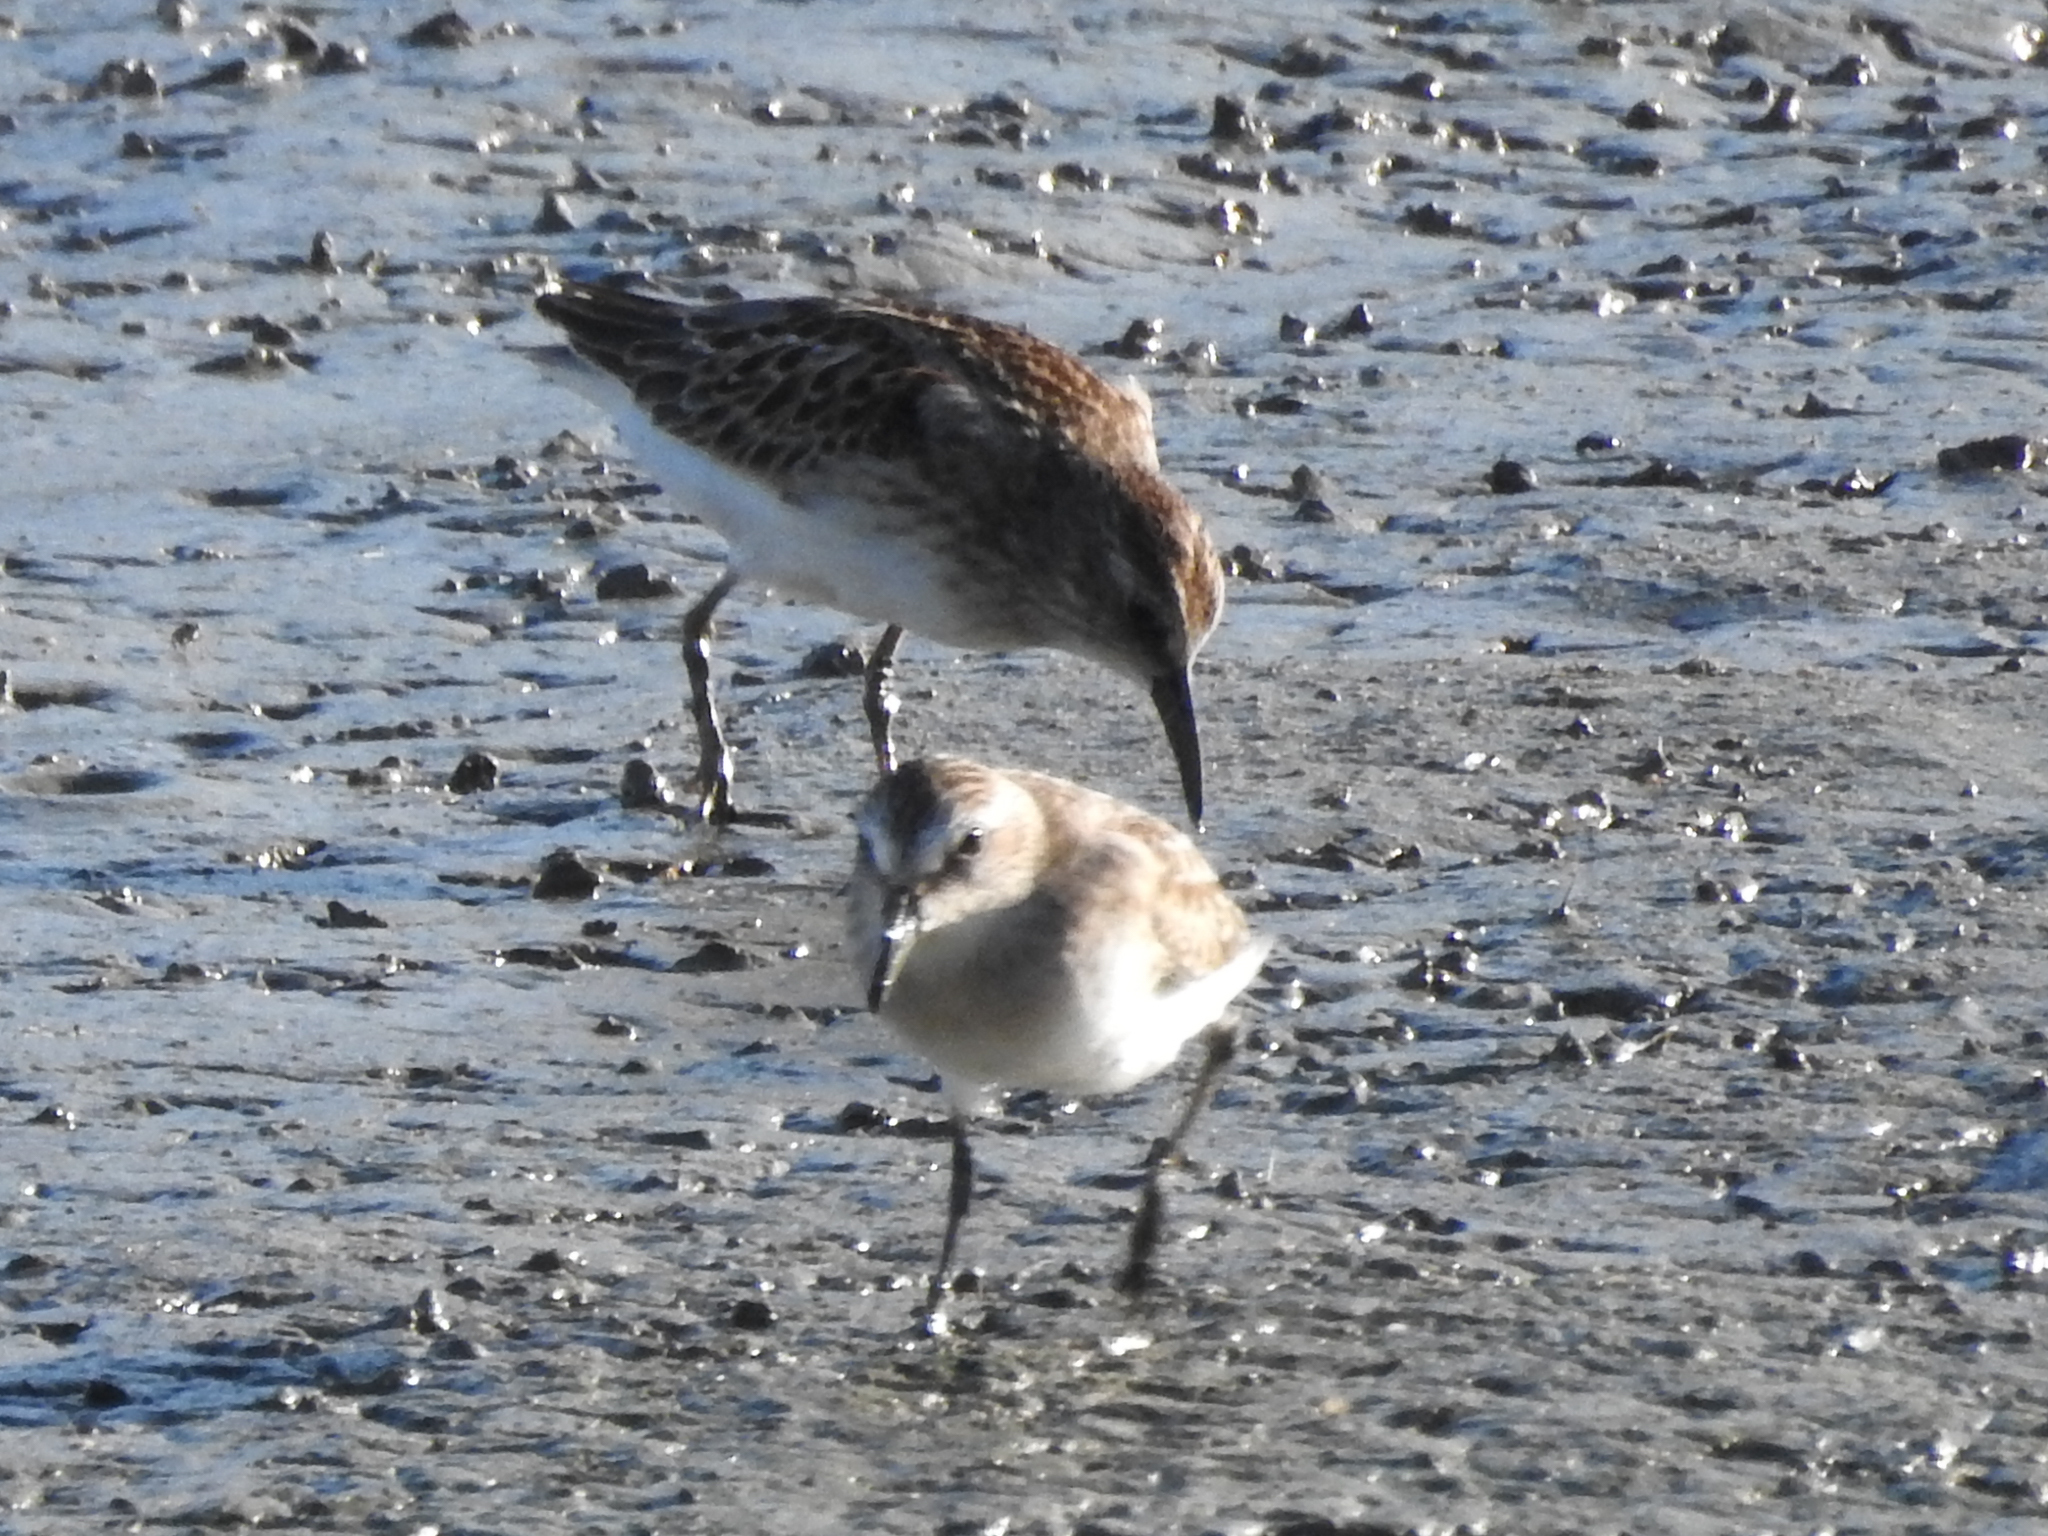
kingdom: Animalia
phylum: Chordata
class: Aves
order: Charadriiformes
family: Scolopacidae
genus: Calidris
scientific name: Calidris minutilla
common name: Least sandpiper
